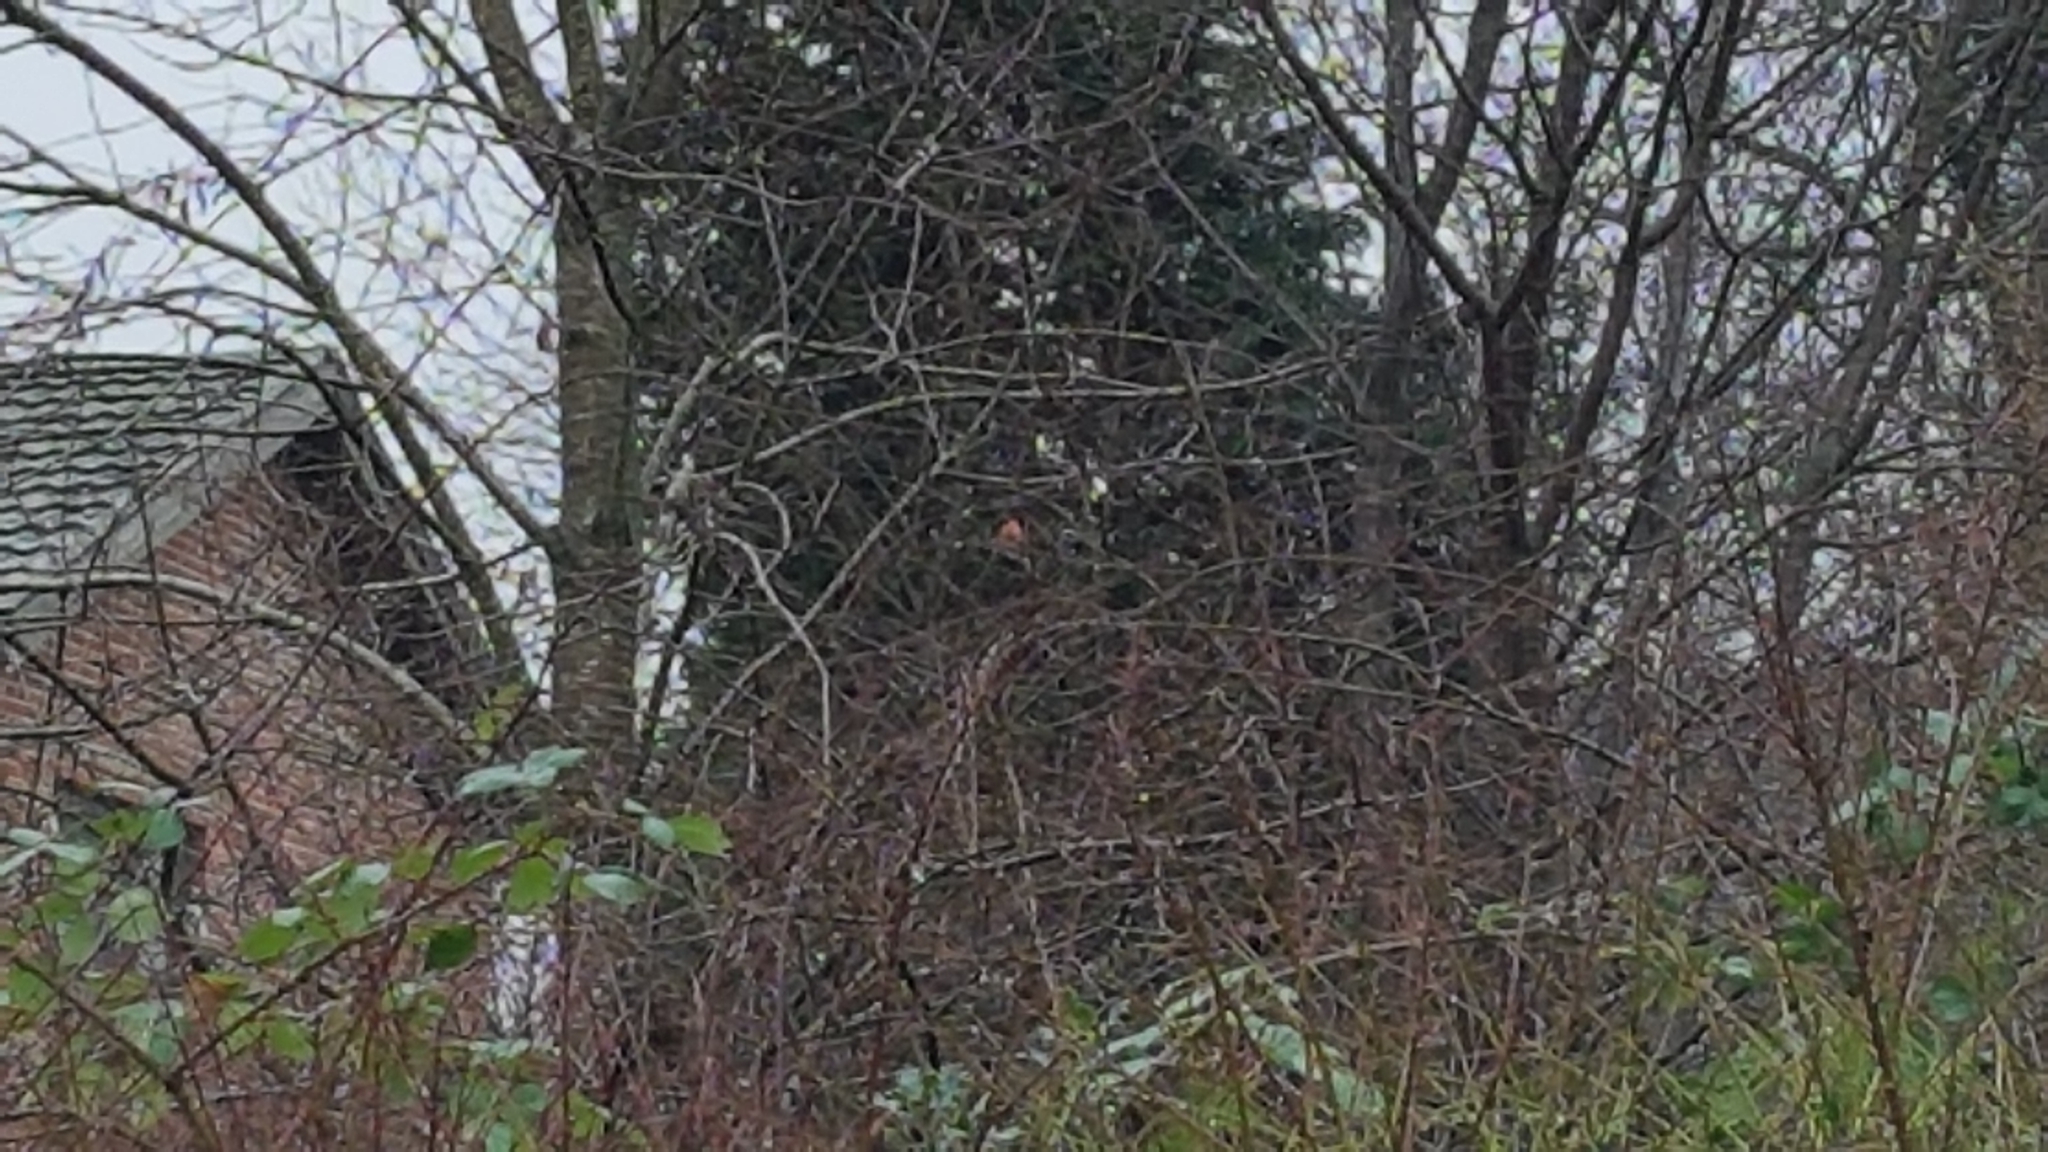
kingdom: Animalia
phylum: Chordata
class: Aves
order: Passeriformes
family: Fringillidae
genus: Pyrrhula
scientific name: Pyrrhula pyrrhula
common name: Eurasian bullfinch
